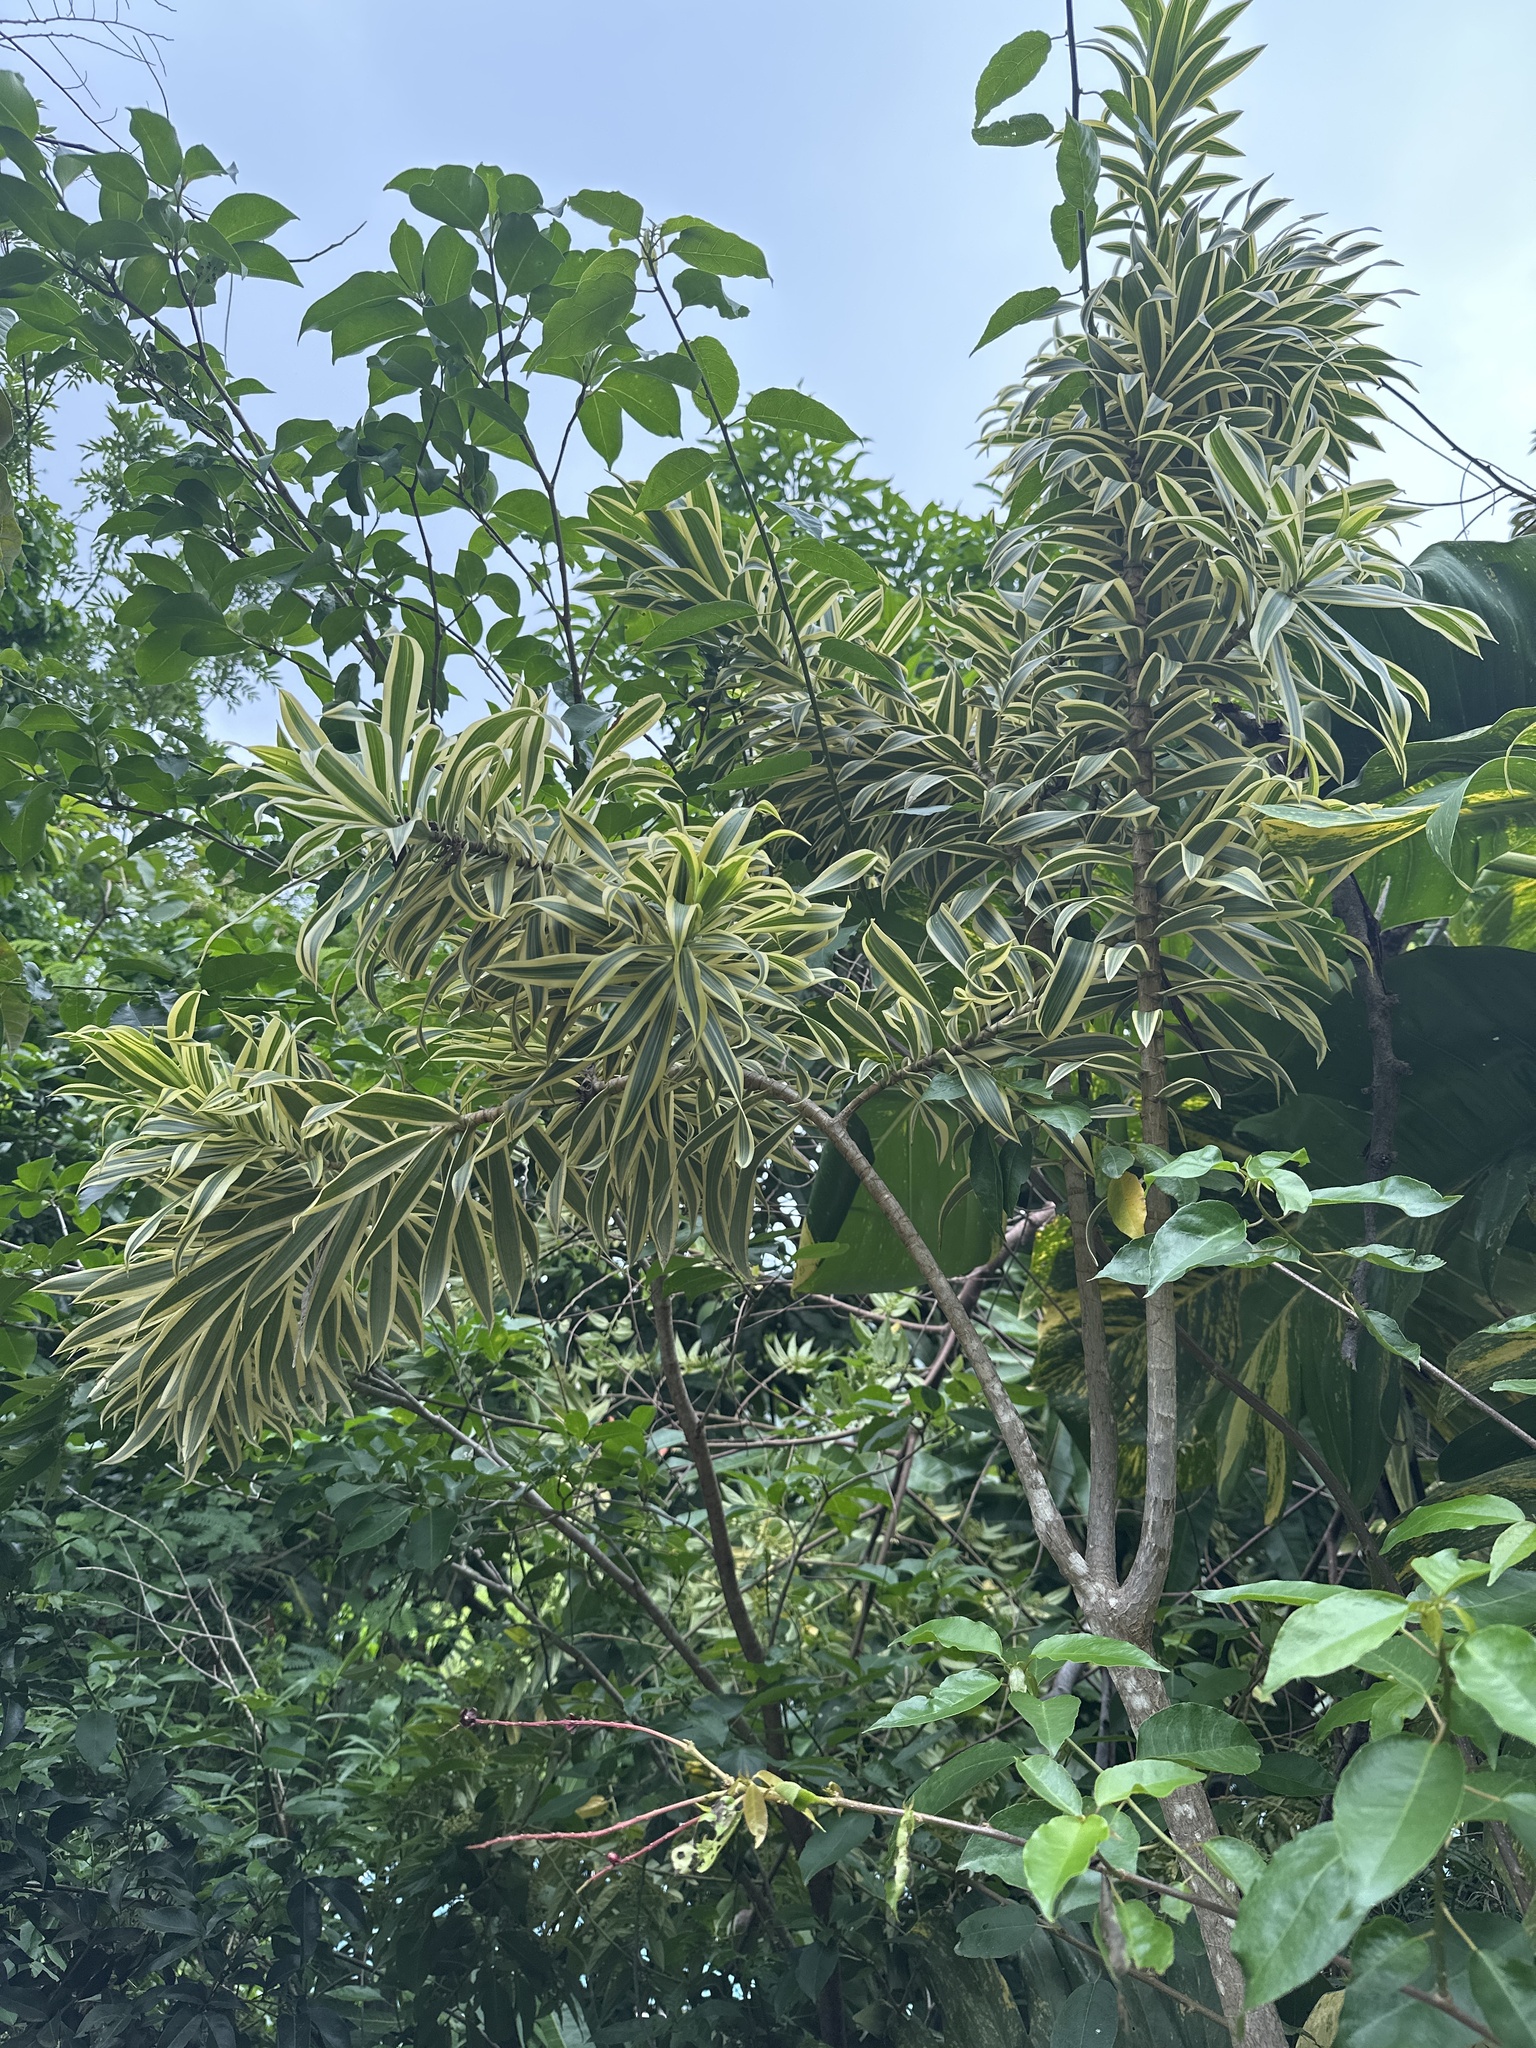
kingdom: Plantae
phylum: Tracheophyta
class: Liliopsida
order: Asparagales
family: Asparagaceae
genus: Dracaena
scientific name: Dracaena reflexa
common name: Song-of-india
